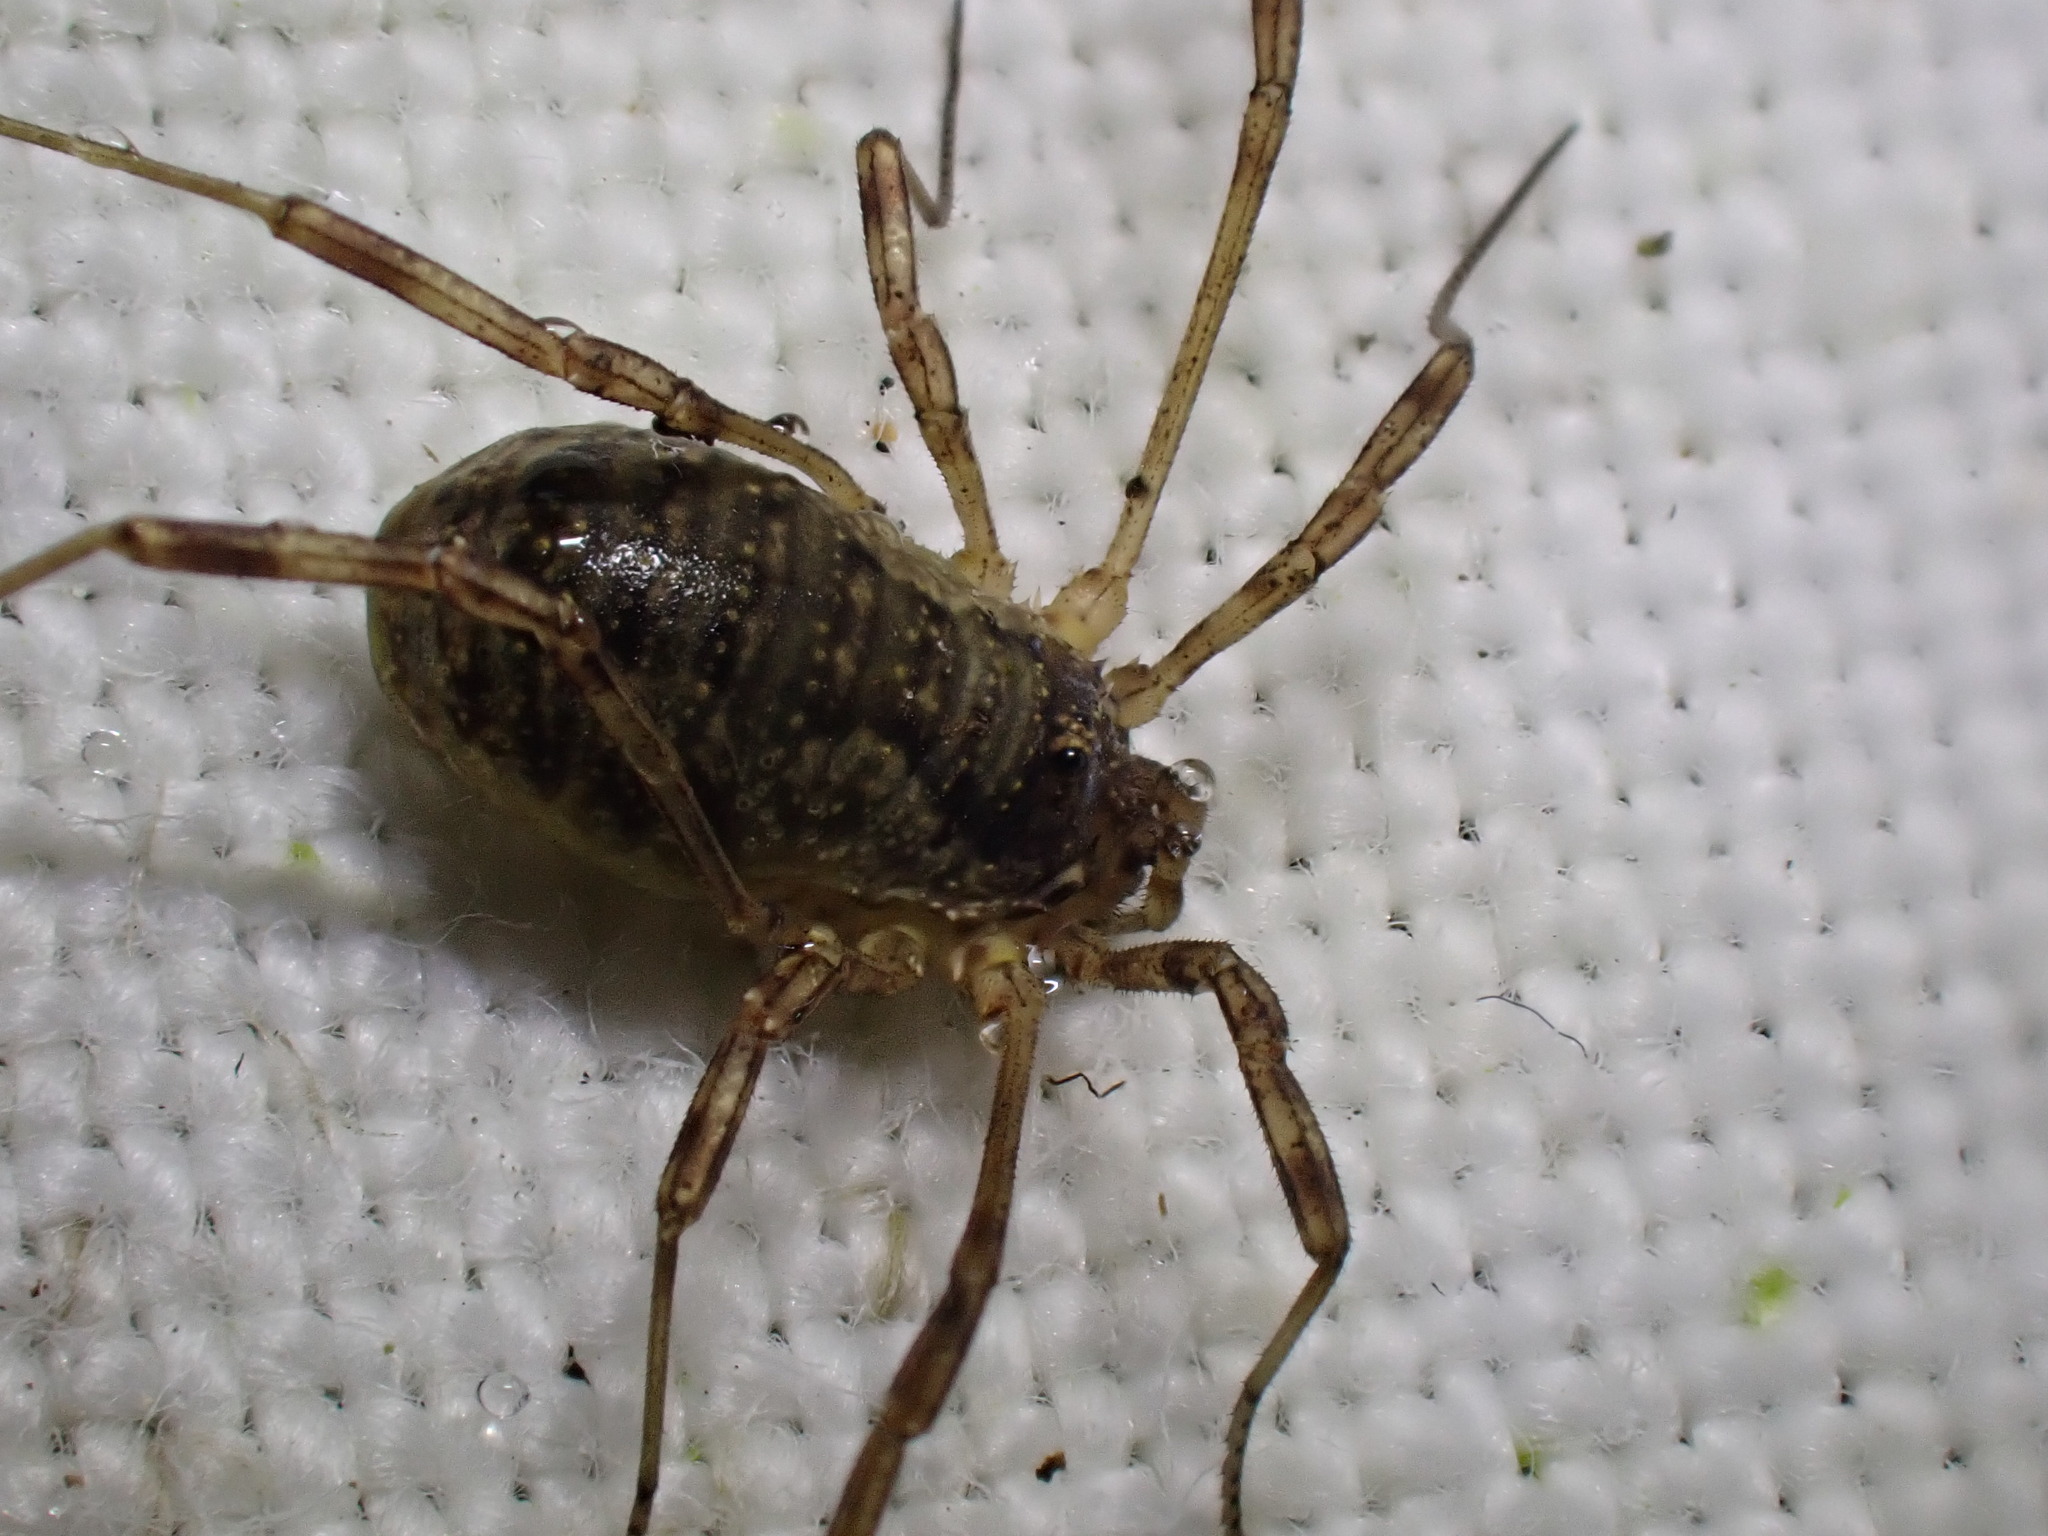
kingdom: Animalia
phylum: Arthropoda
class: Arachnida
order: Opiliones
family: Phalangiidae
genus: Oligolophus
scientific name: Oligolophus tridens
